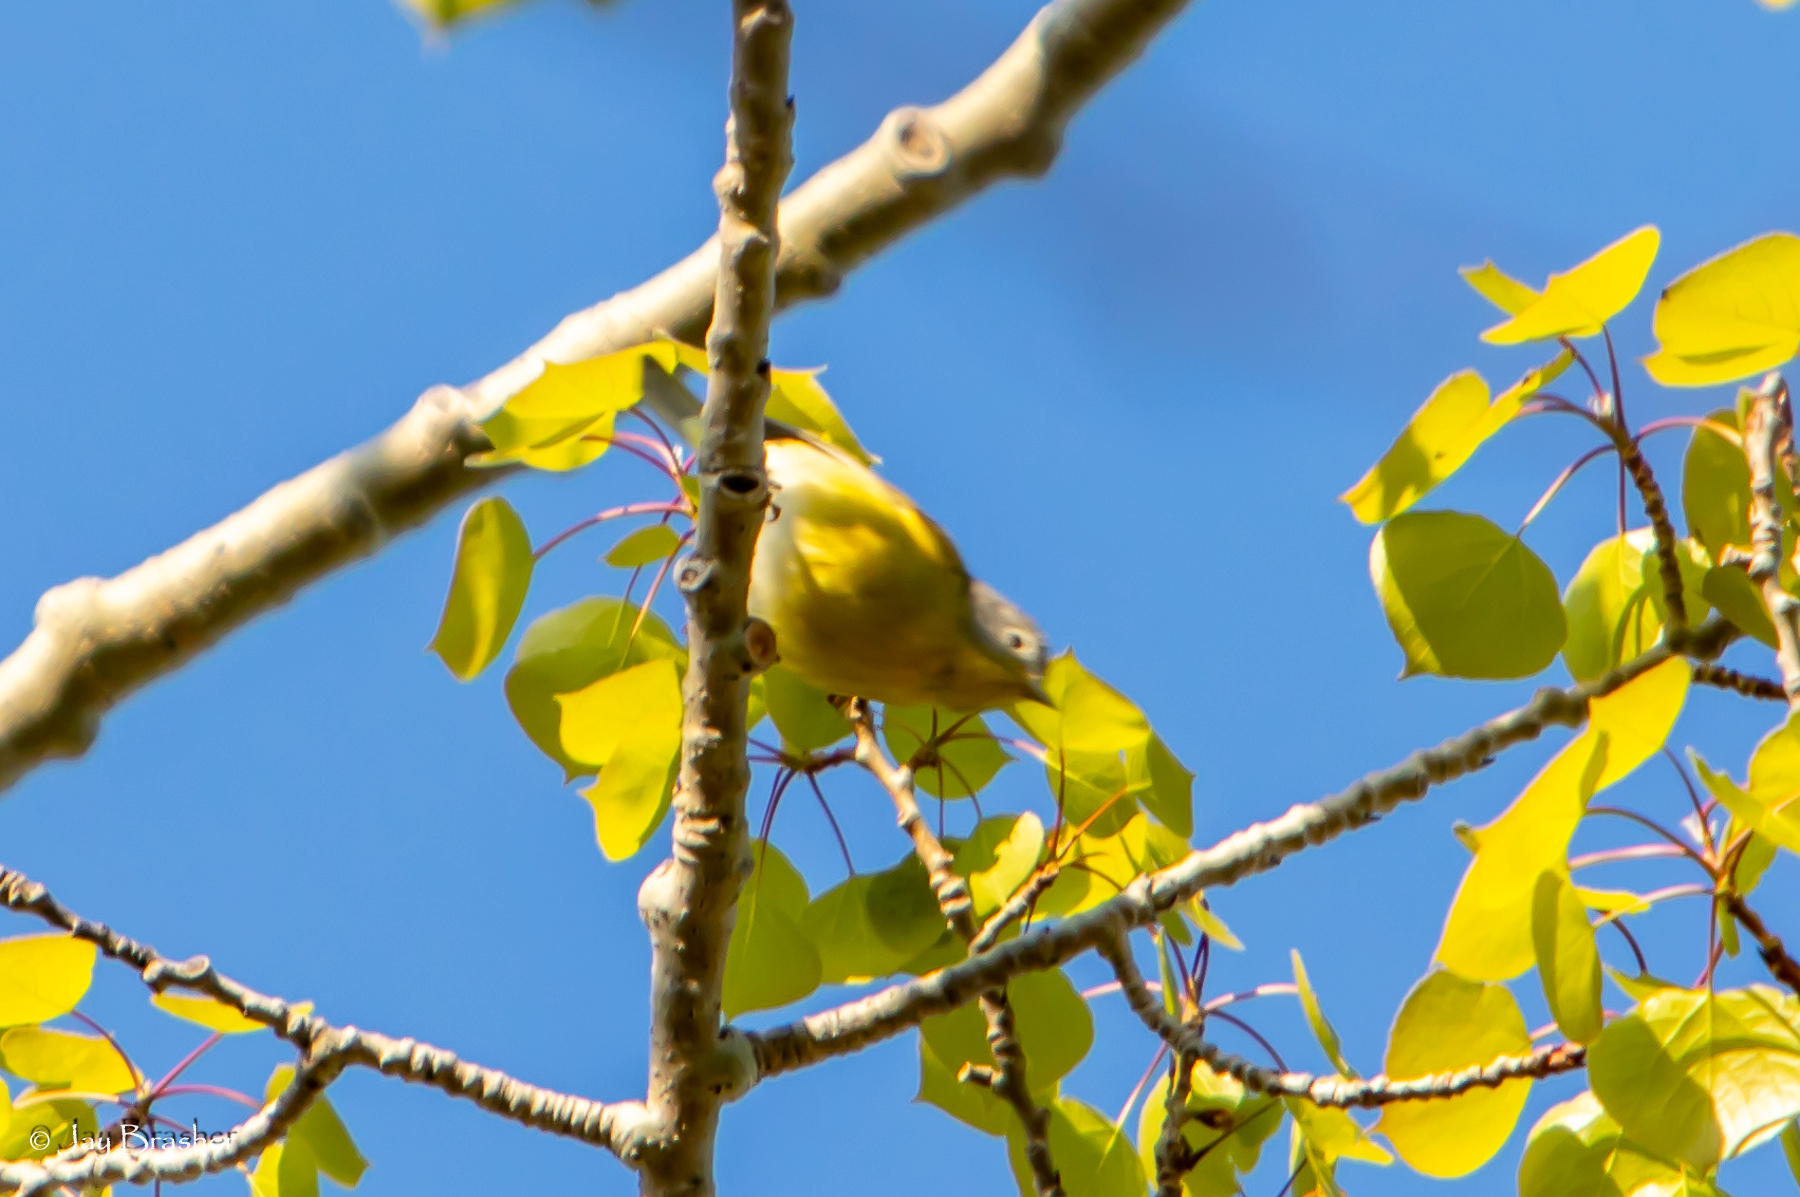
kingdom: Animalia
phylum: Chordata
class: Aves
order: Passeriformes
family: Parulidae
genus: Leiothlypis
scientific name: Leiothlypis ruficapilla
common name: Nashville warbler
